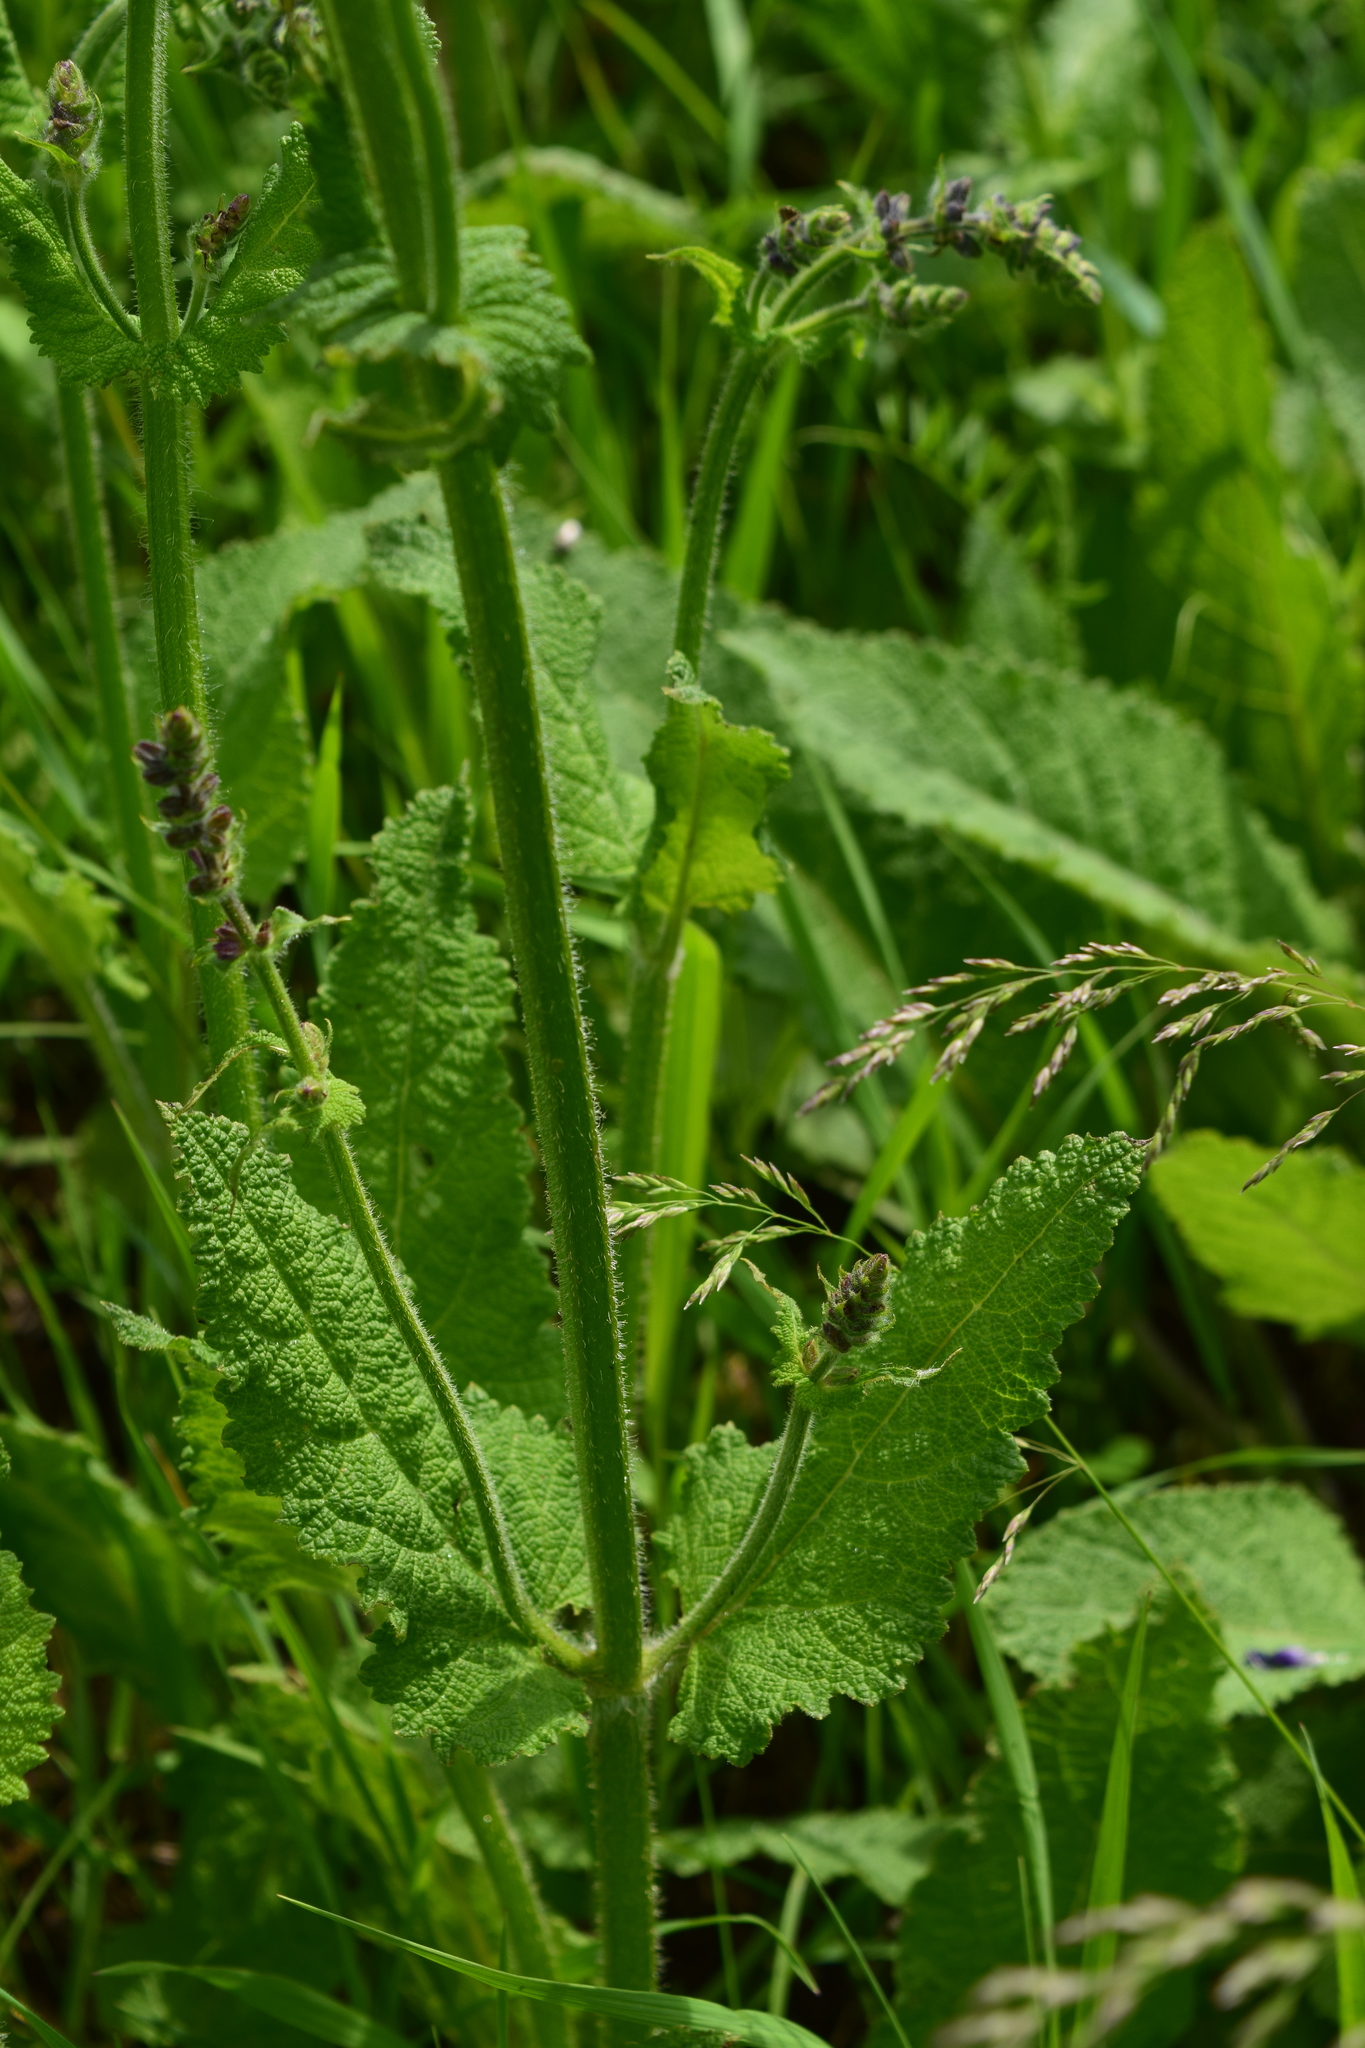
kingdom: Plantae
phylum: Tracheophyta
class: Magnoliopsida
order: Lamiales
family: Lamiaceae
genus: Salvia
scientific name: Salvia pratensis
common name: Meadow sage
